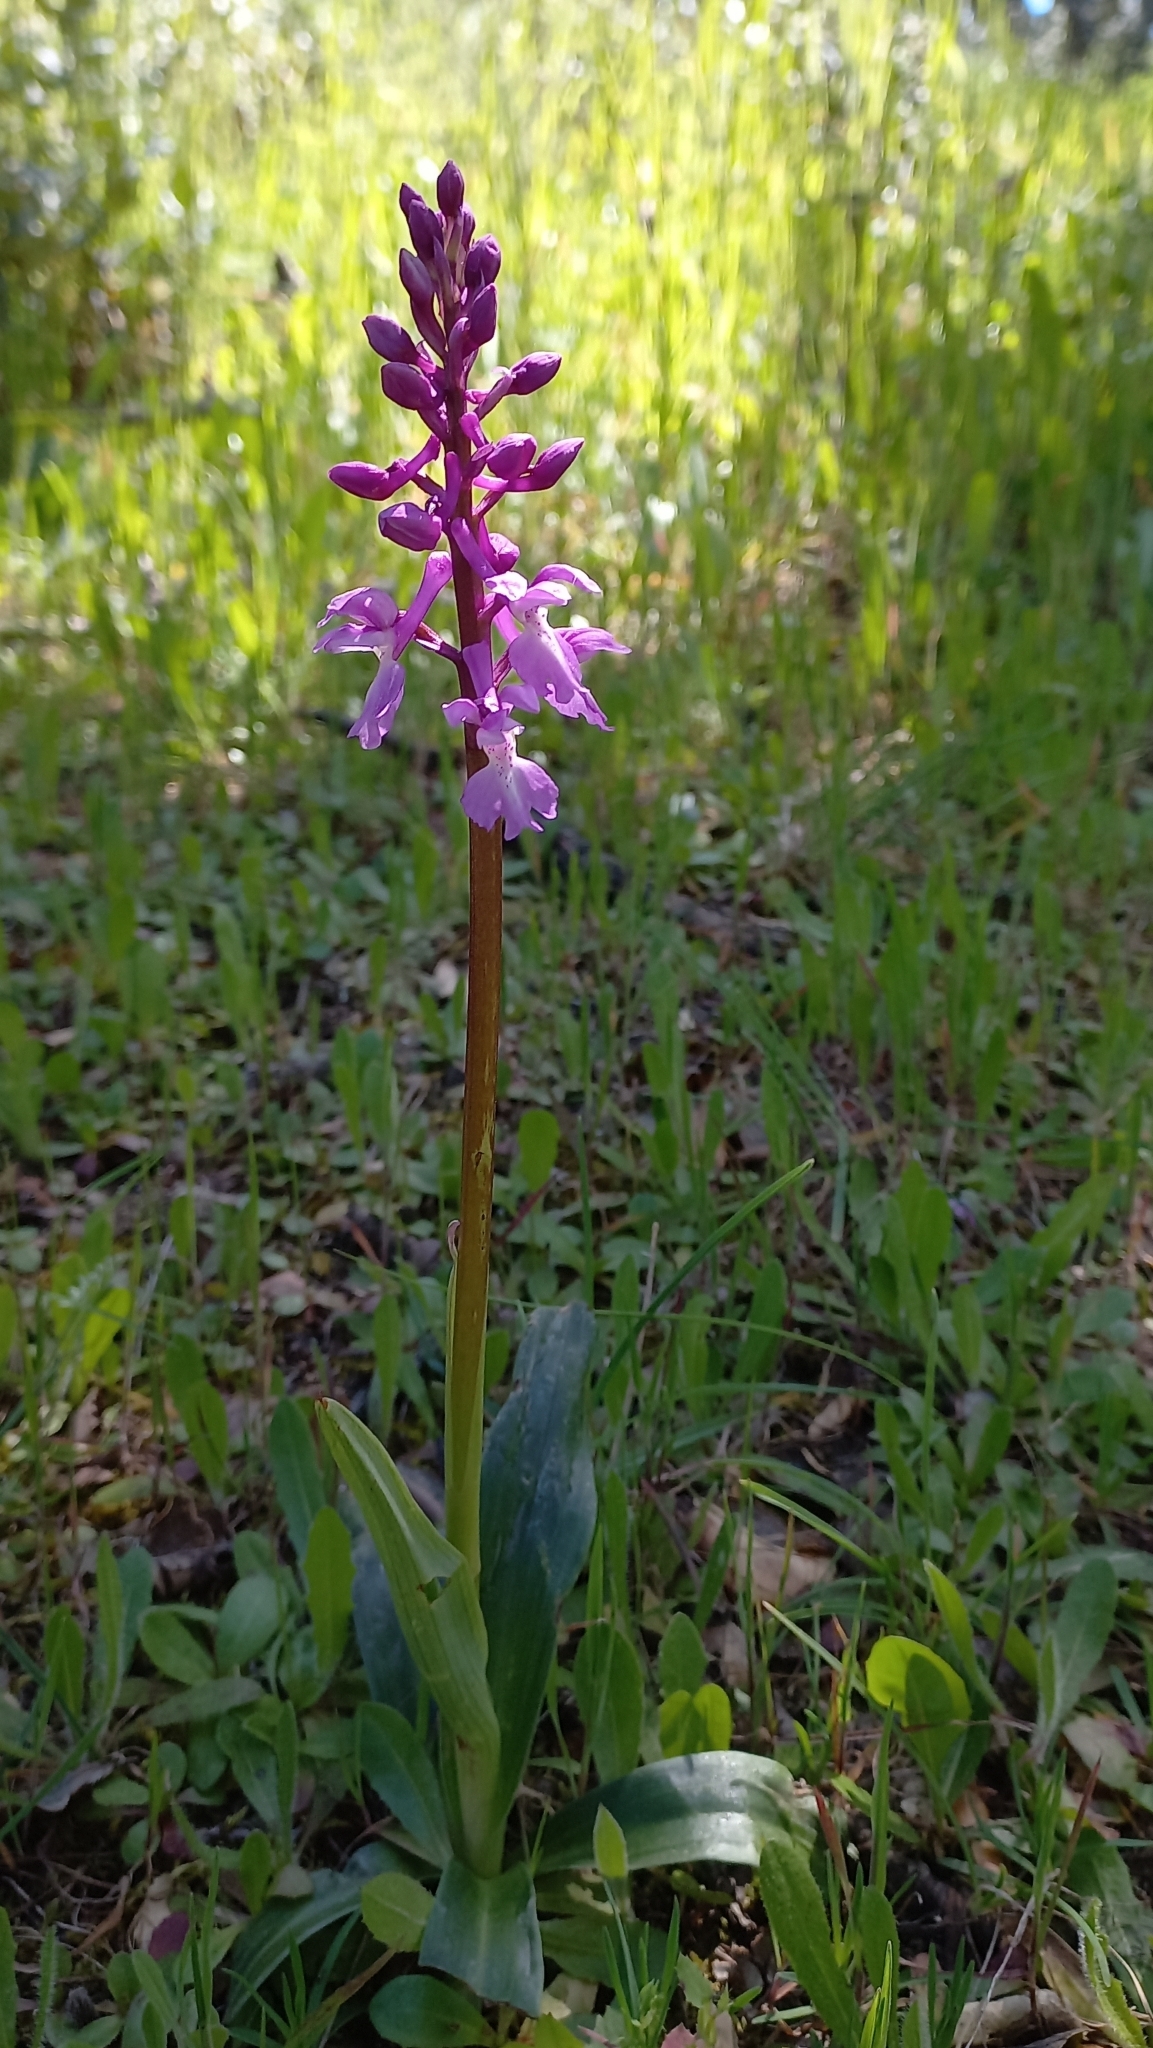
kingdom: Plantae
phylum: Tracheophyta
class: Liliopsida
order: Asparagales
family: Orchidaceae
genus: Orchis
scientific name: Orchis mascula
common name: Early-purple orchid
